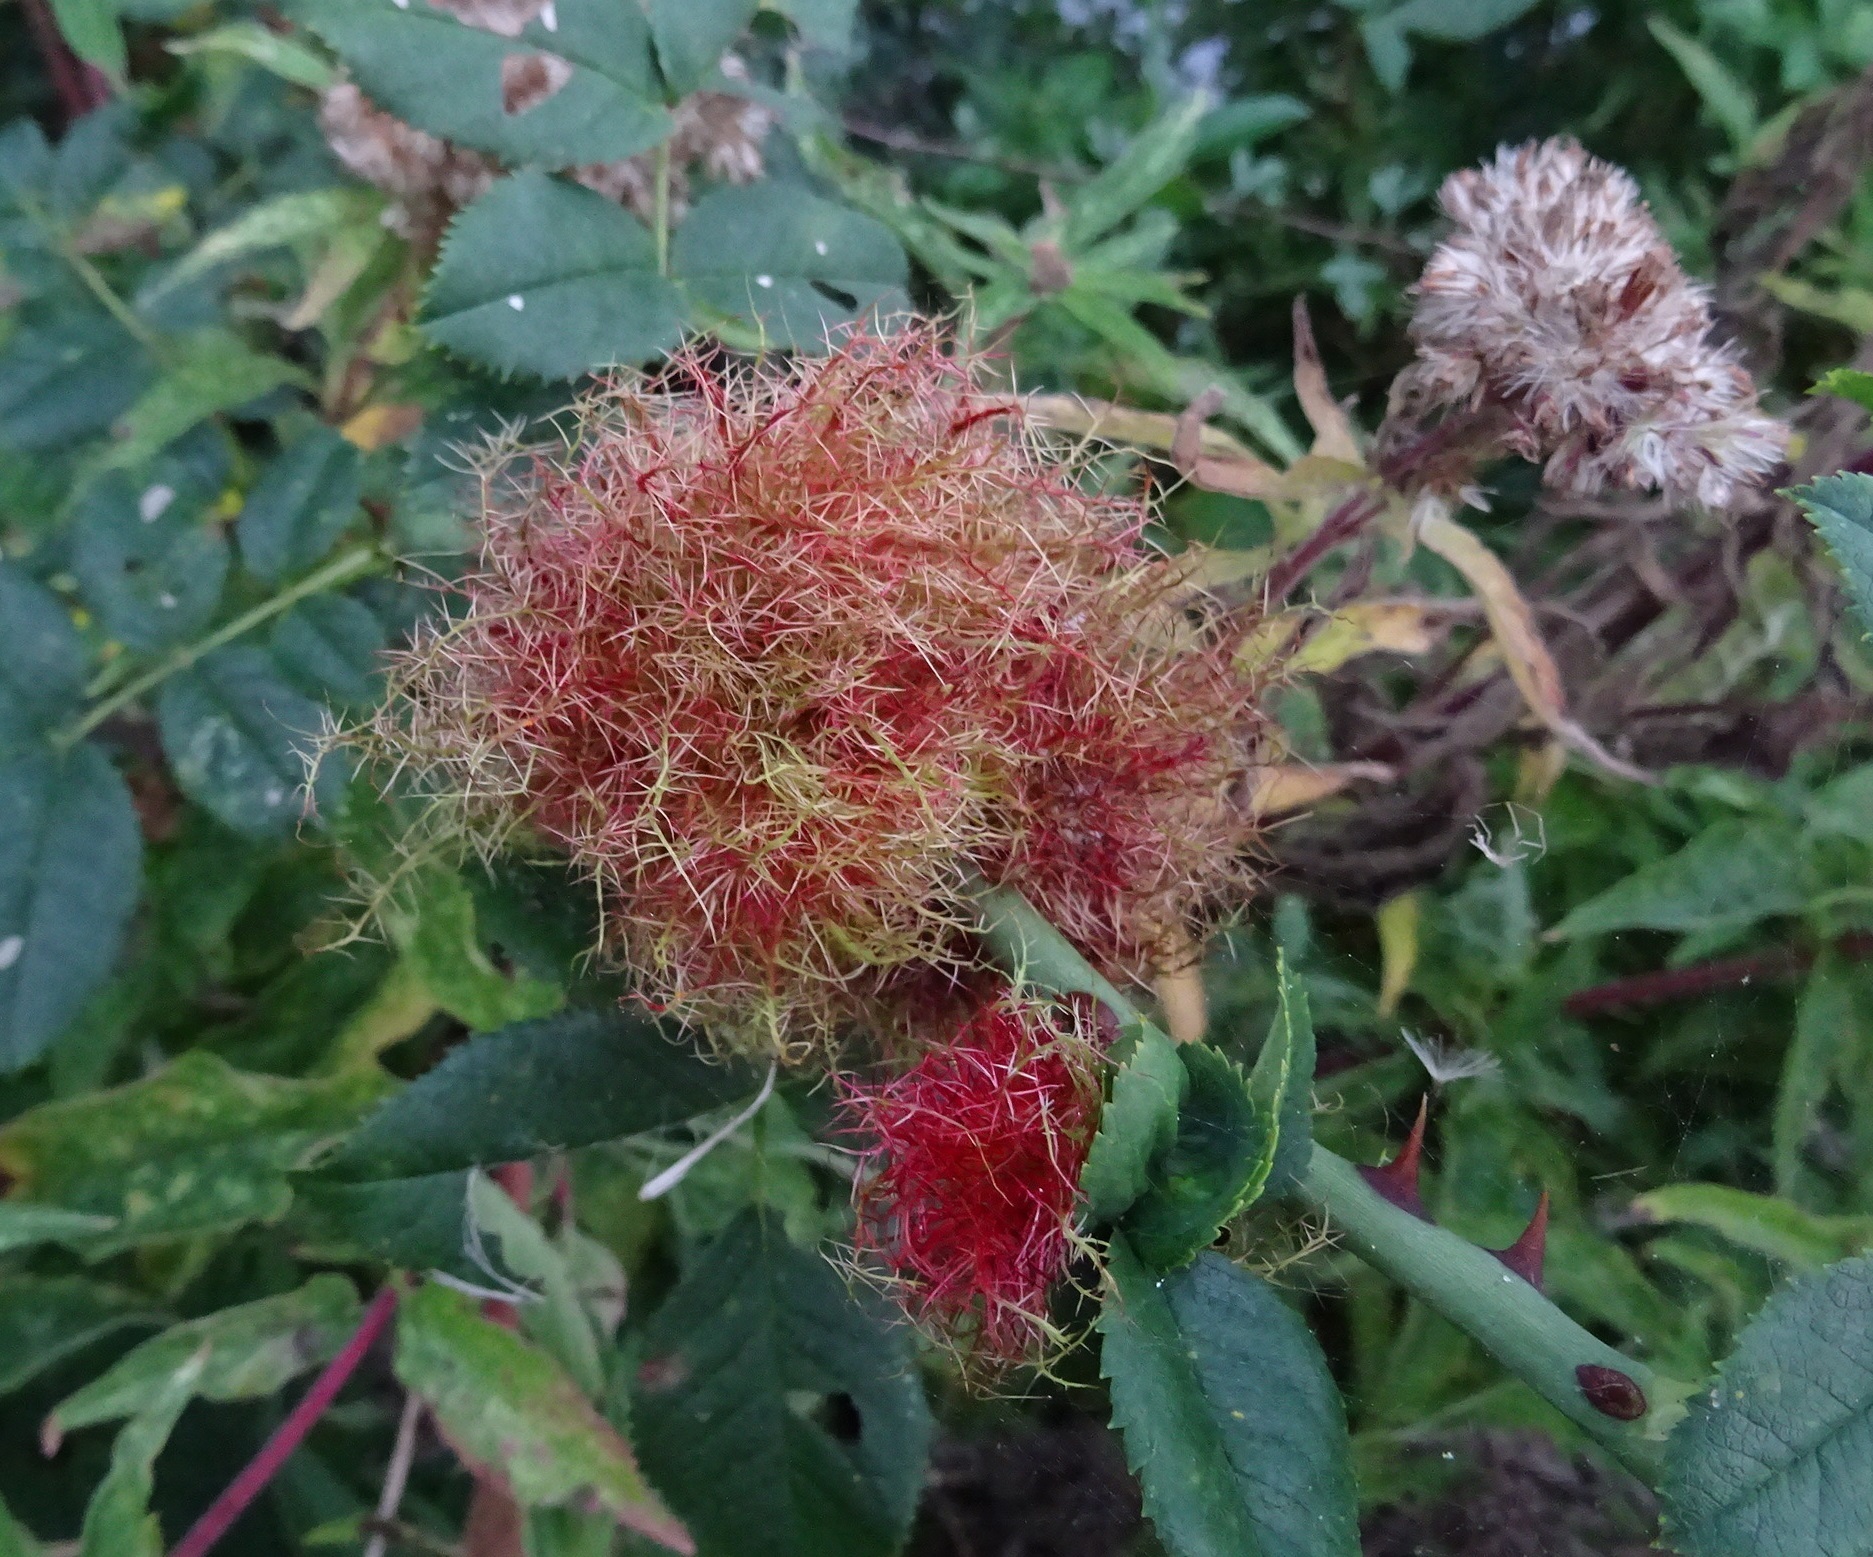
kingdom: Animalia
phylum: Arthropoda
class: Insecta
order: Hymenoptera
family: Cynipidae
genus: Diplolepis
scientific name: Diplolepis rosae
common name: Bedeguar gall
